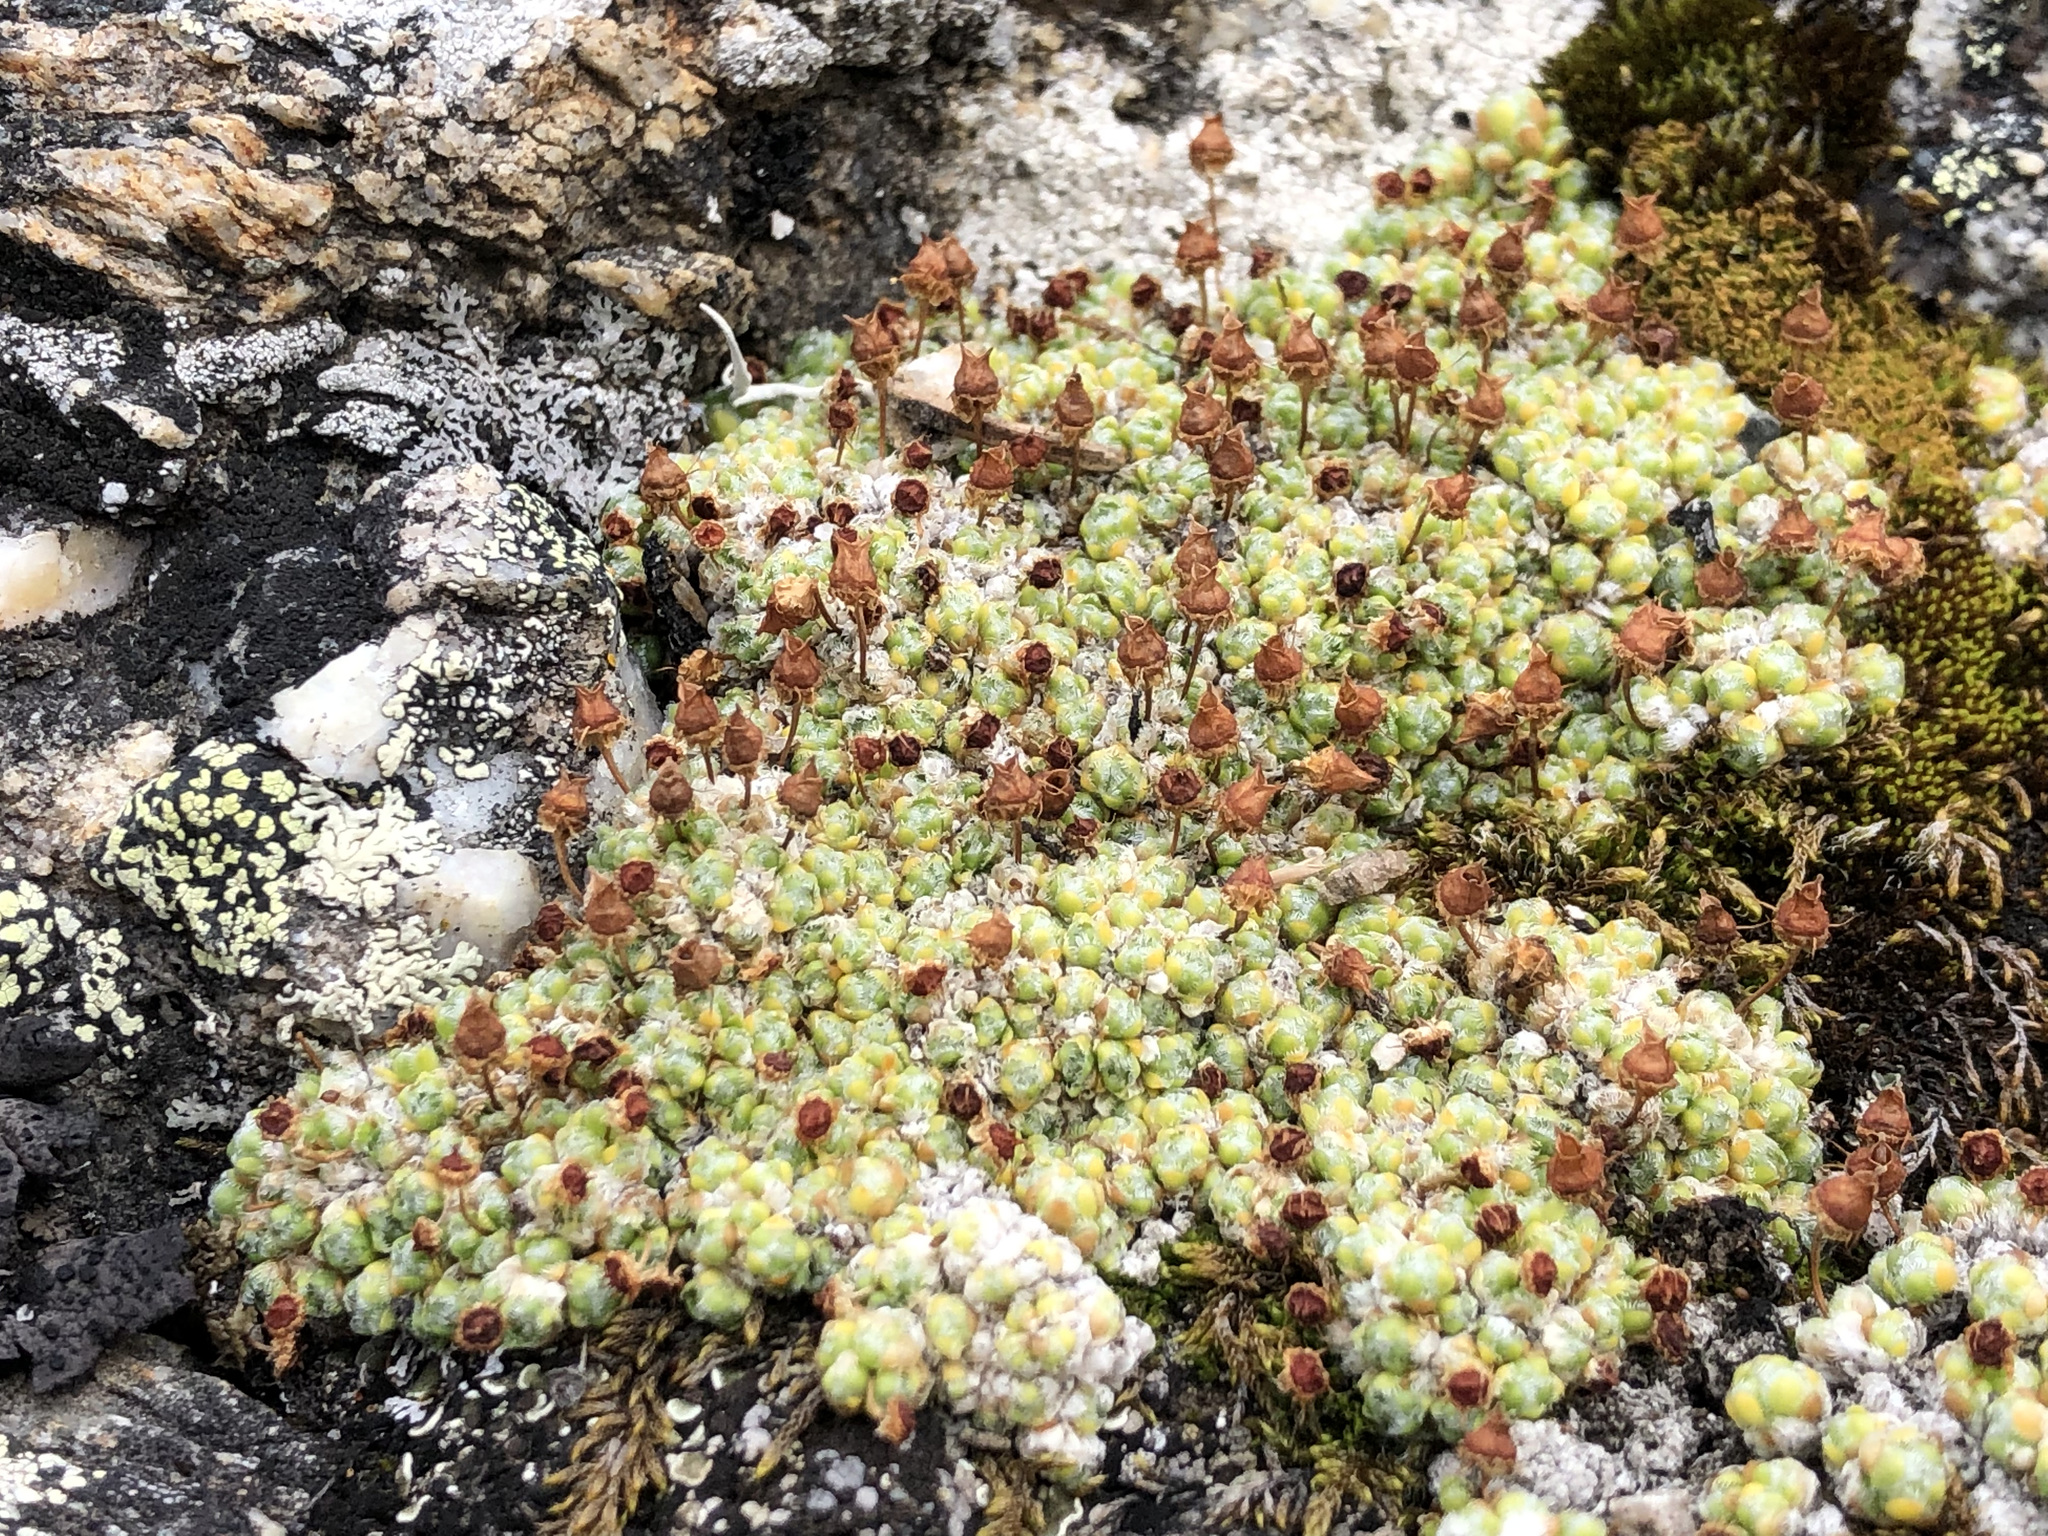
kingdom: Plantae
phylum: Tracheophyta
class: Magnoliopsida
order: Saxifragales
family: Saxifragaceae
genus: Saxifraga
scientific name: Saxifraga eschscholtzii
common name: Eschscholtz's saxifrage
